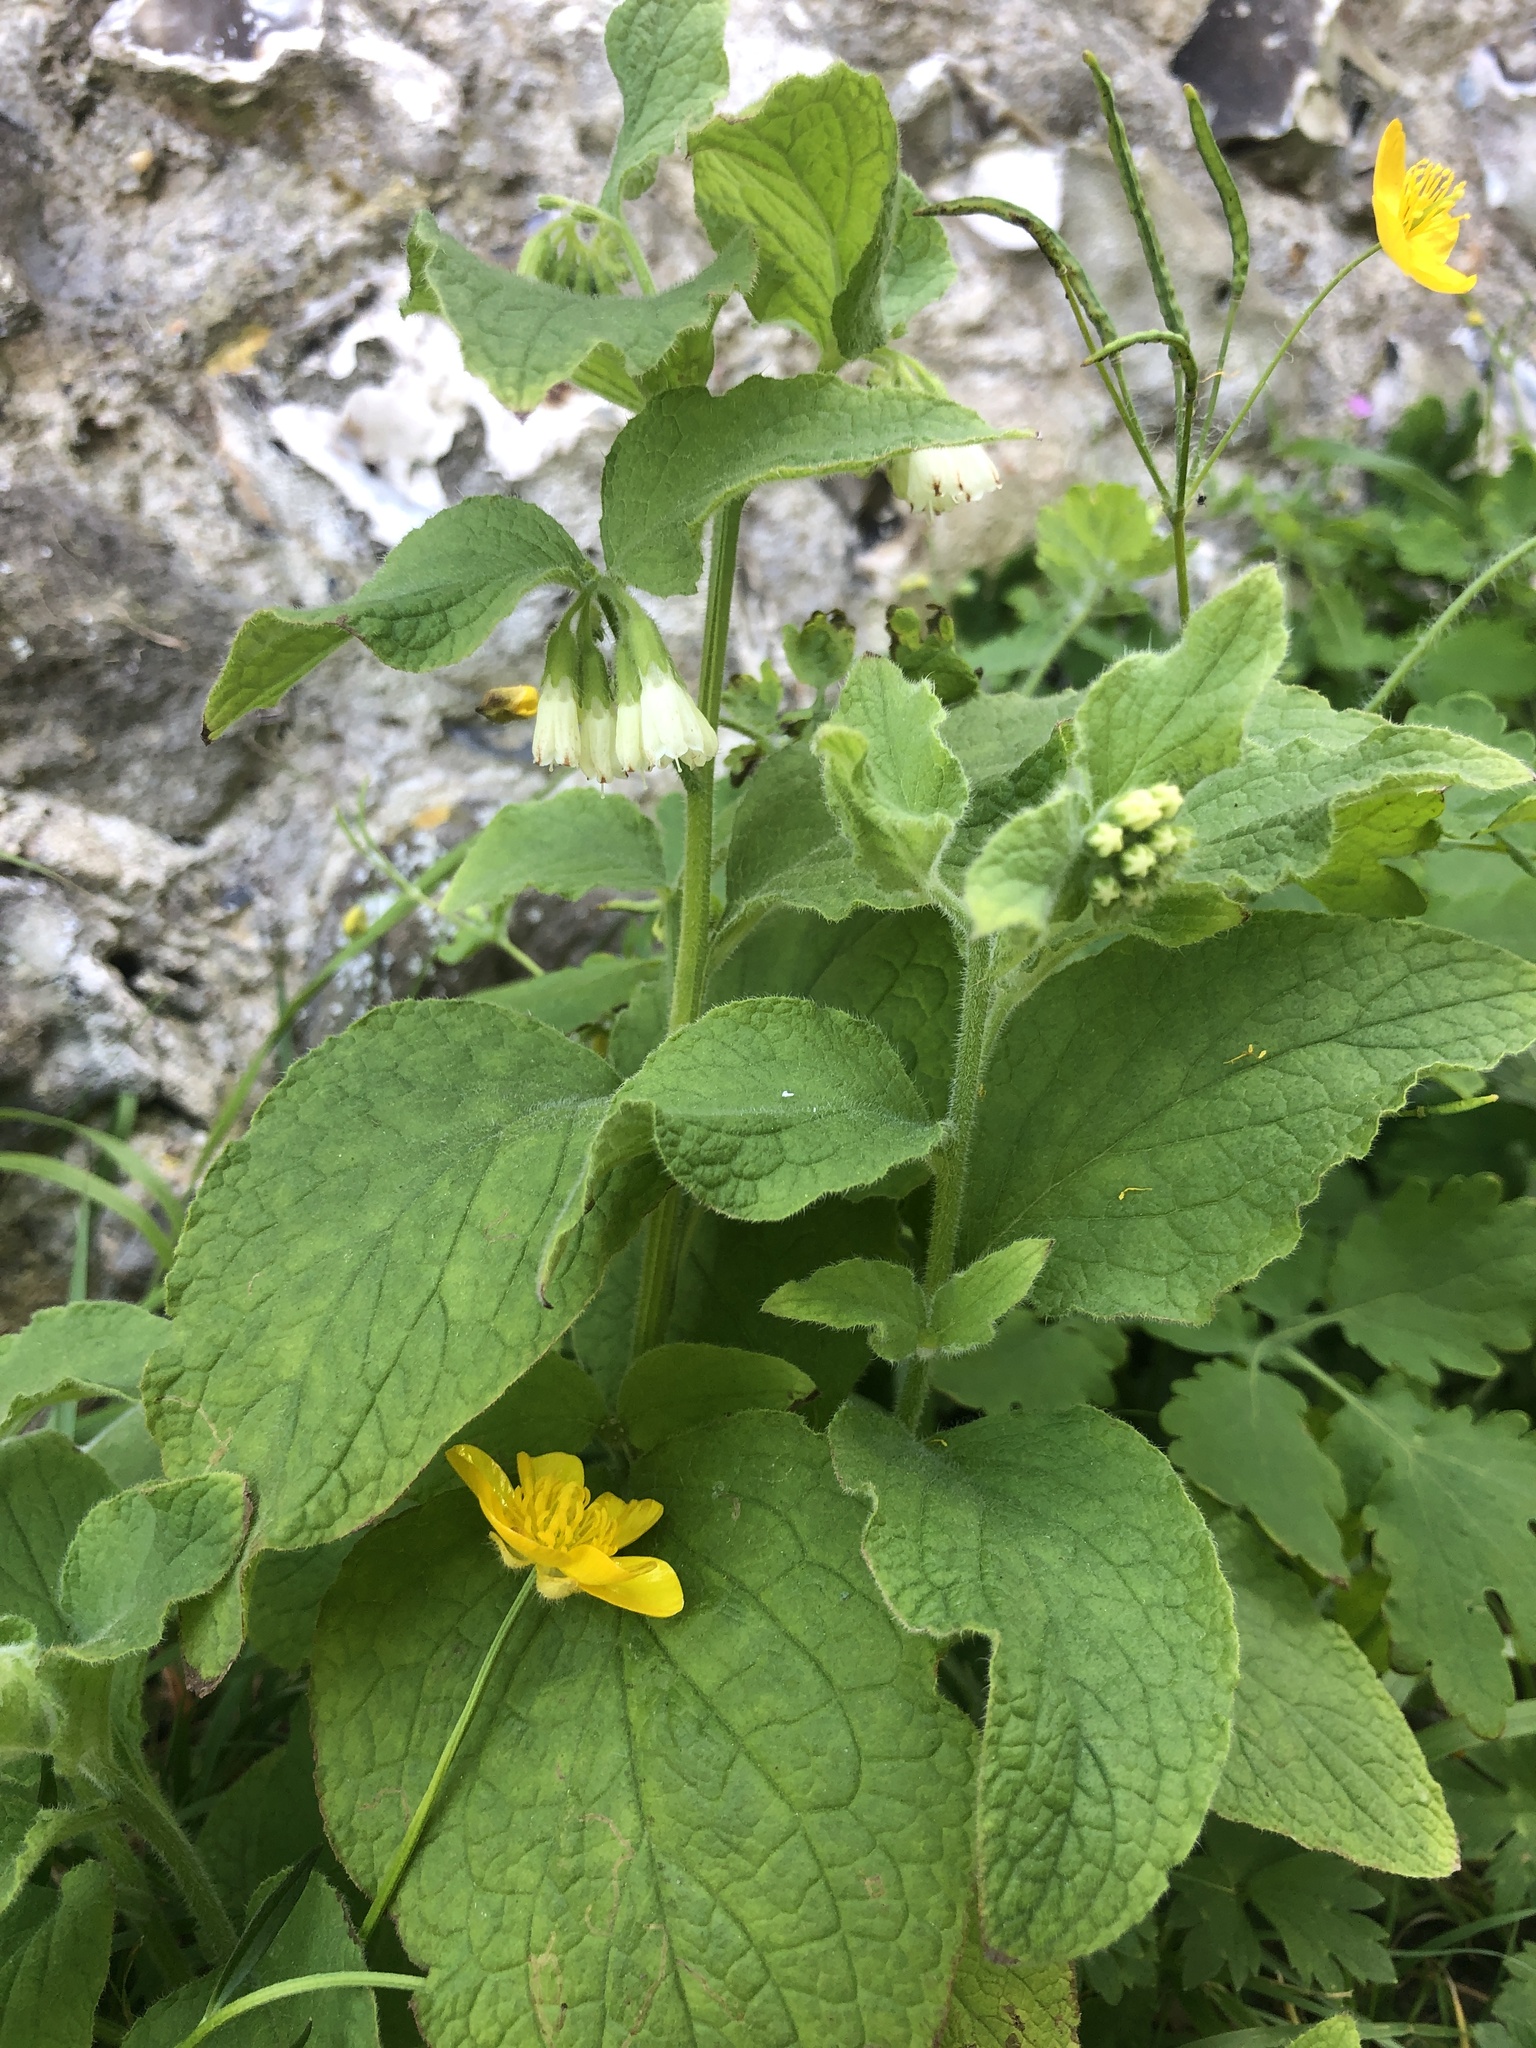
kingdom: Plantae
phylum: Tracheophyta
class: Magnoliopsida
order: Boraginales
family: Boraginaceae
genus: Symphytum
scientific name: Symphytum orientale
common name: White comfrey
